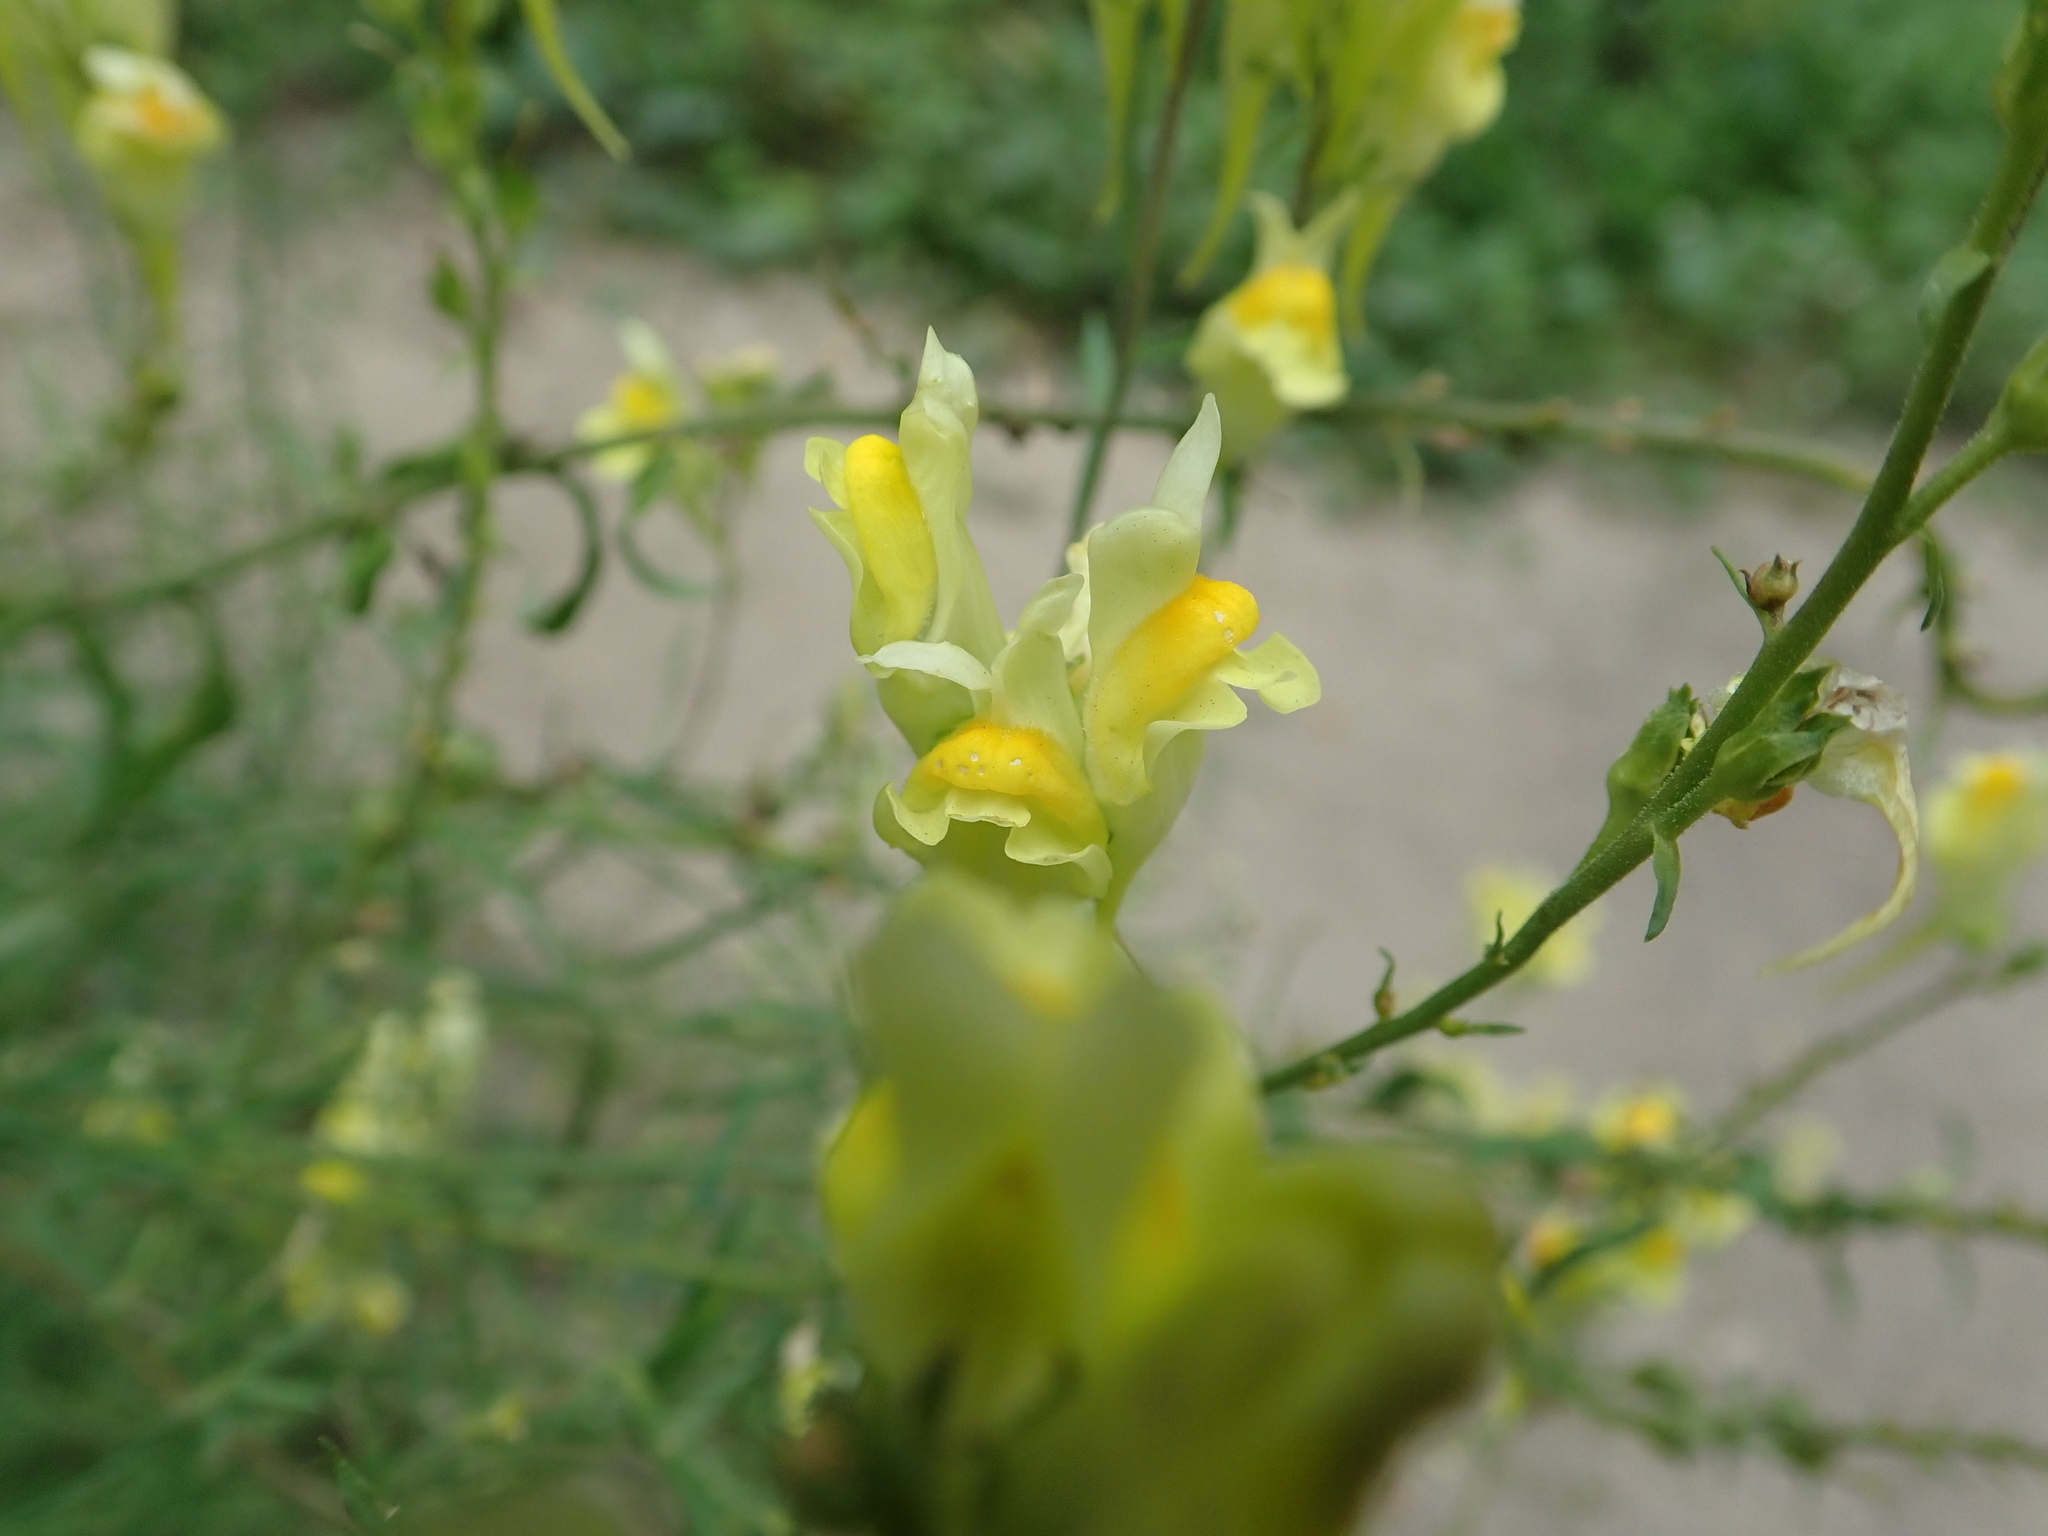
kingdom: Plantae
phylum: Tracheophyta
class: Magnoliopsida
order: Lamiales
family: Plantaginaceae
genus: Linaria
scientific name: Linaria vulgaris
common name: Butter and eggs
